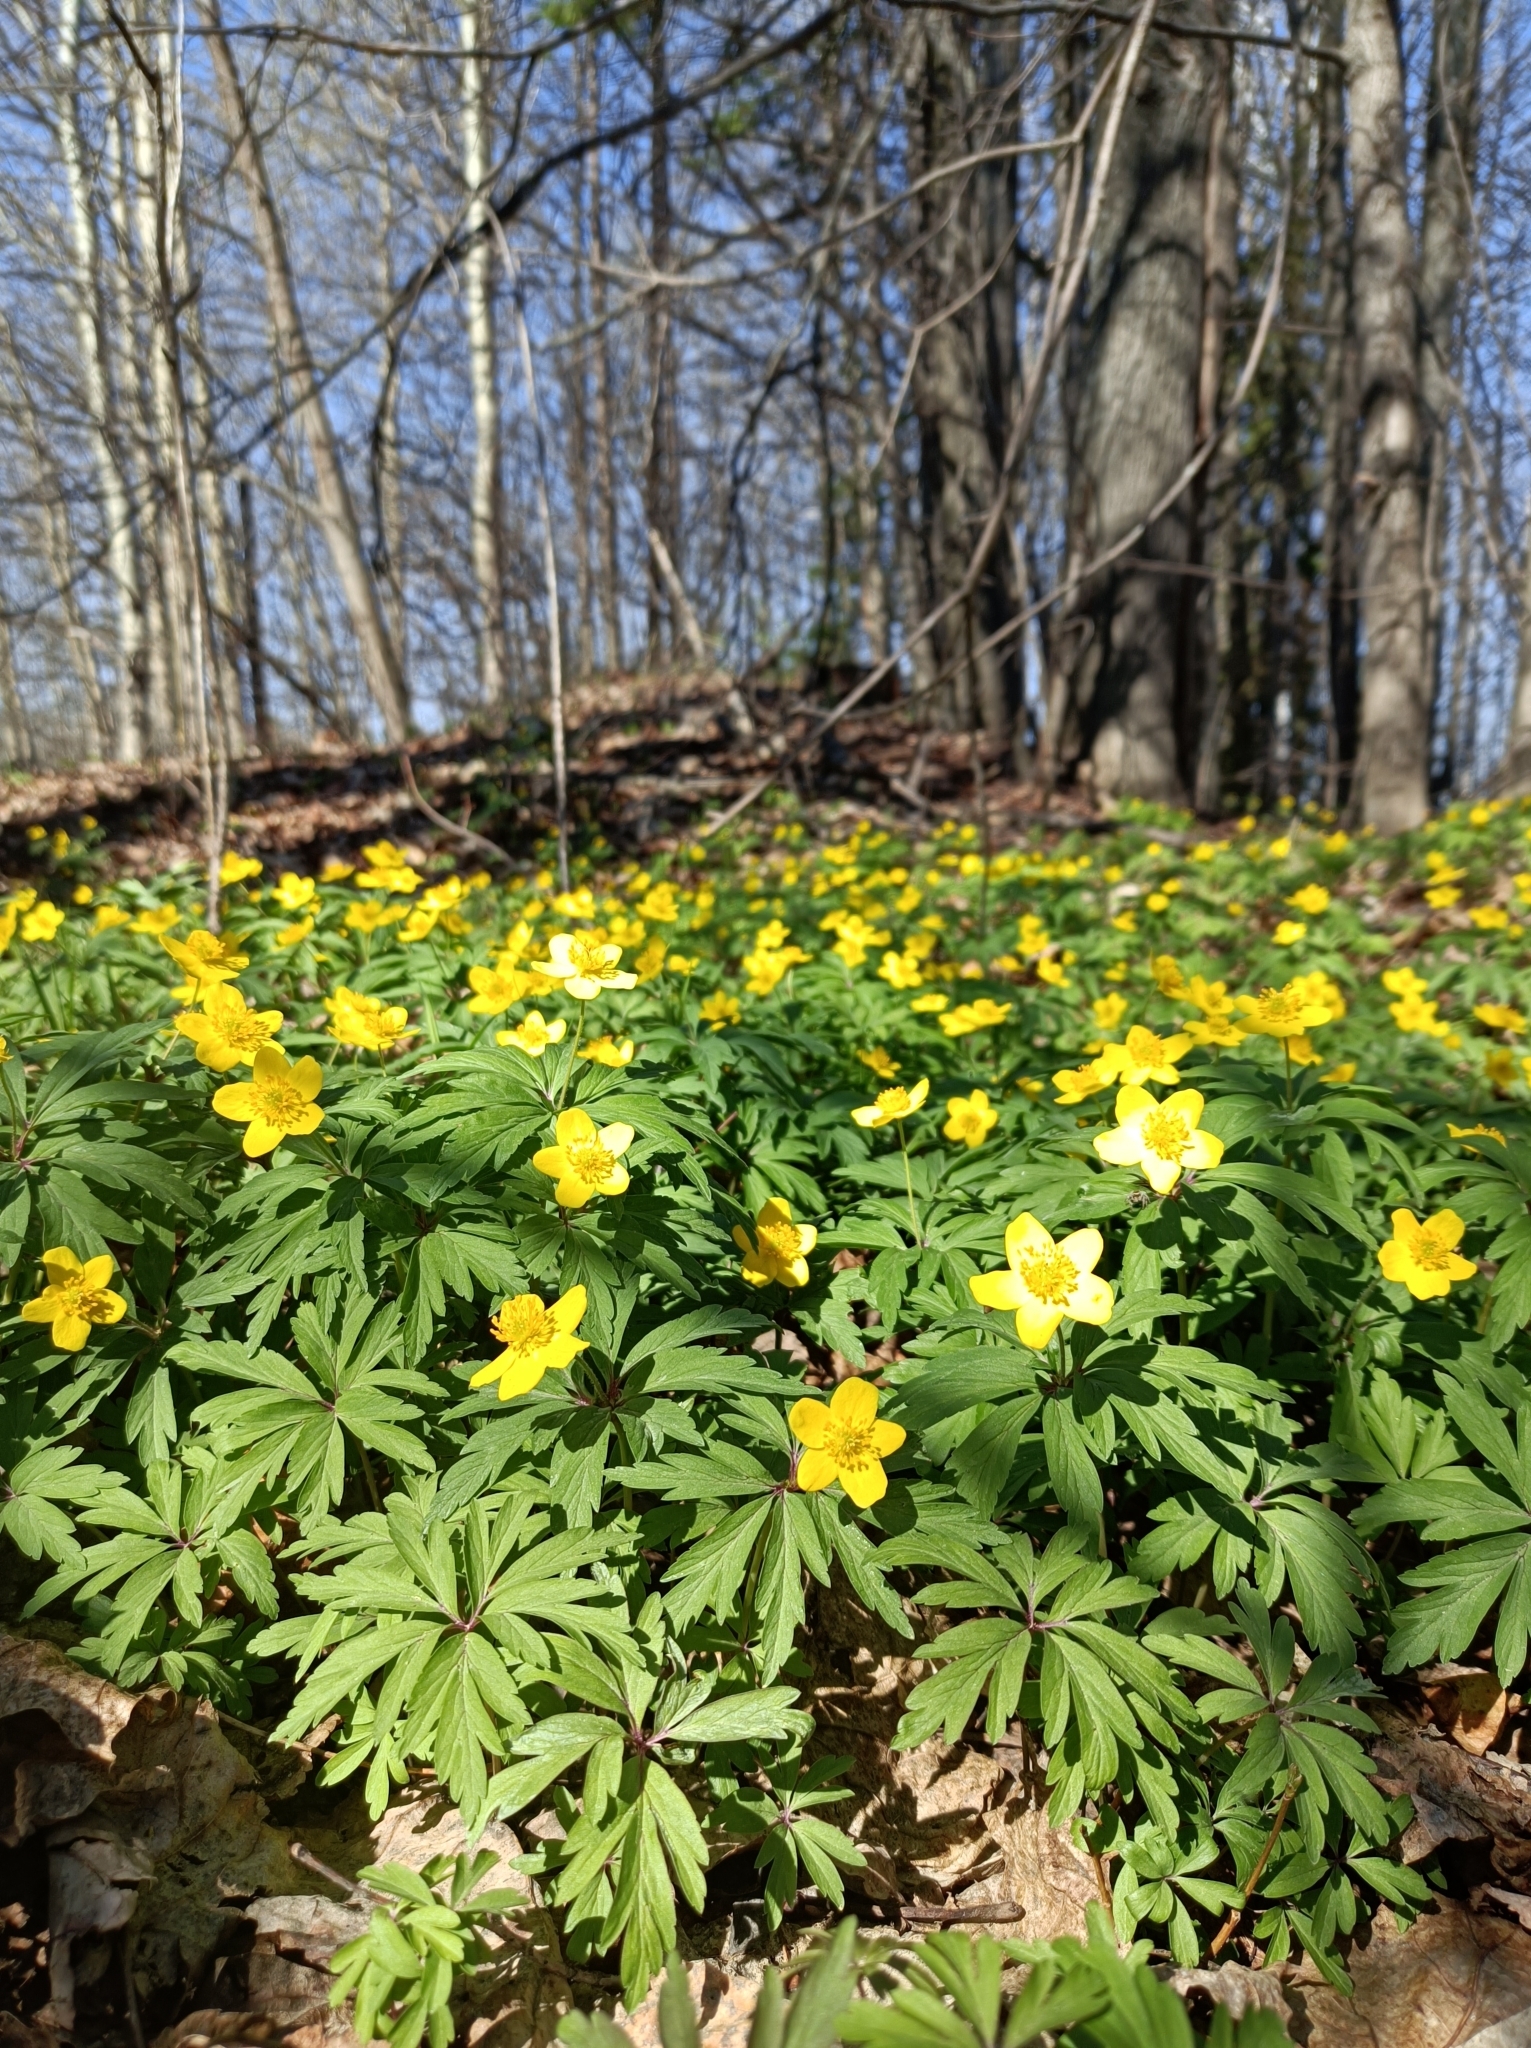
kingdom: Plantae
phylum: Tracheophyta
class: Magnoliopsida
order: Ranunculales
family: Ranunculaceae
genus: Anemone
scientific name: Anemone ranunculoides
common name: Yellow anemone
